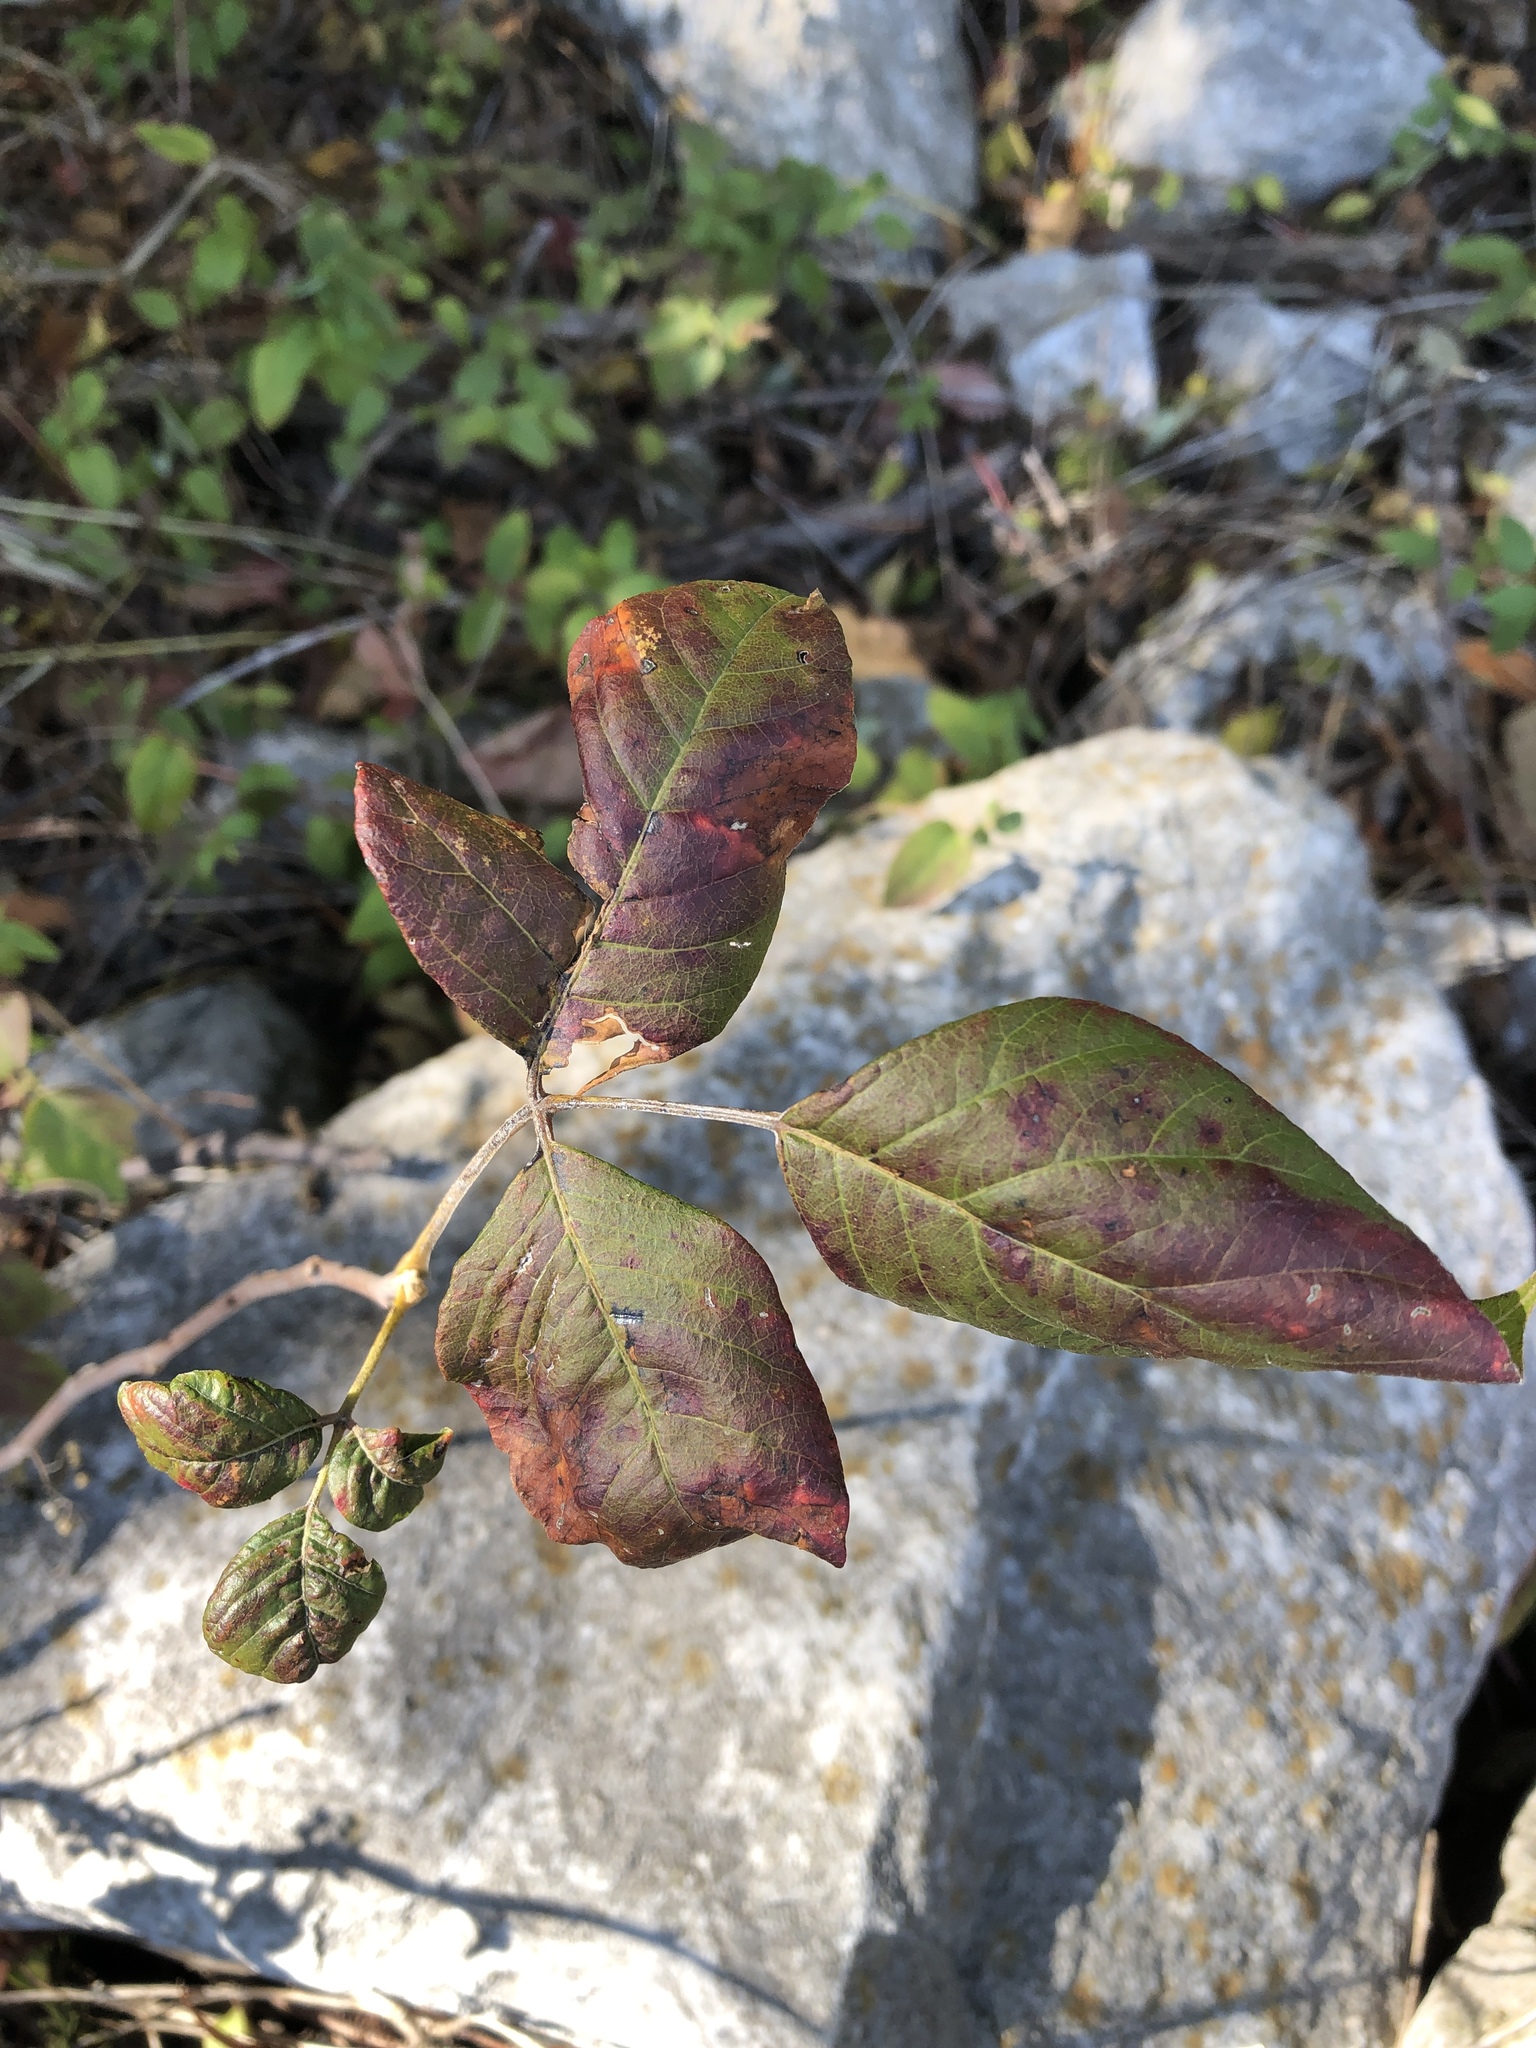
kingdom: Plantae
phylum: Tracheophyta
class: Magnoliopsida
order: Sapindales
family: Anacardiaceae
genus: Toxicodendron
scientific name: Toxicodendron radicans
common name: Poison ivy
